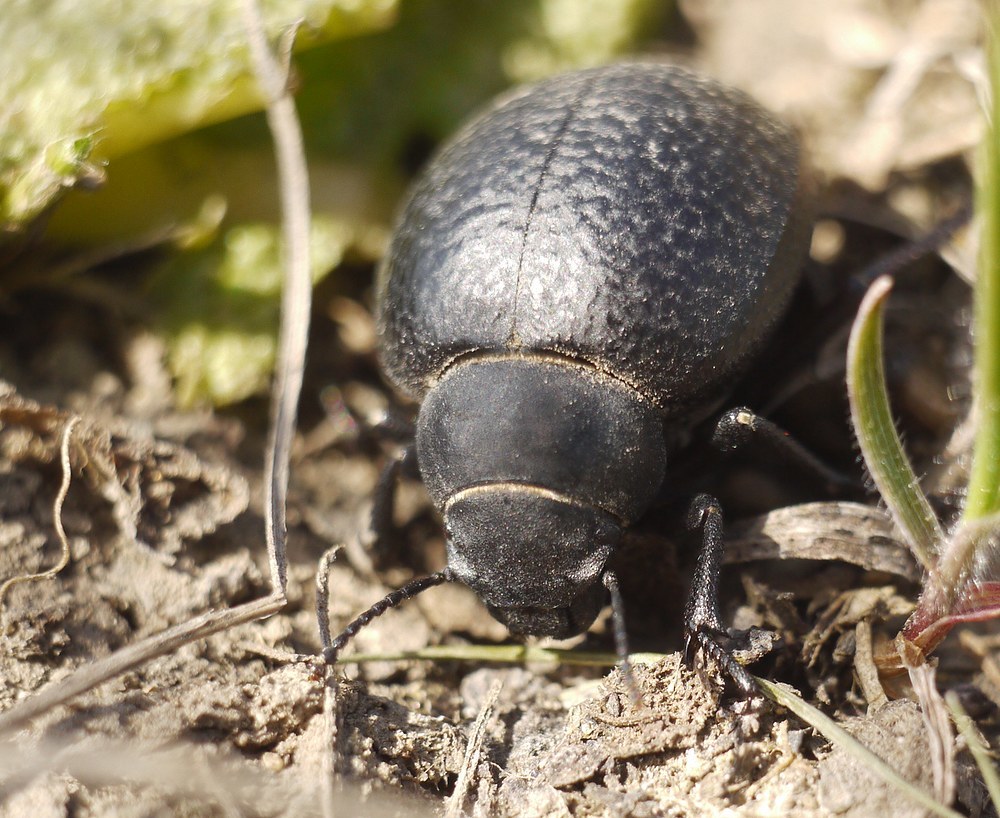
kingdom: Animalia
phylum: Arthropoda
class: Insecta
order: Coleoptera
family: Tenebrionidae
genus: Pimelia
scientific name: Pimelia subglobosa
